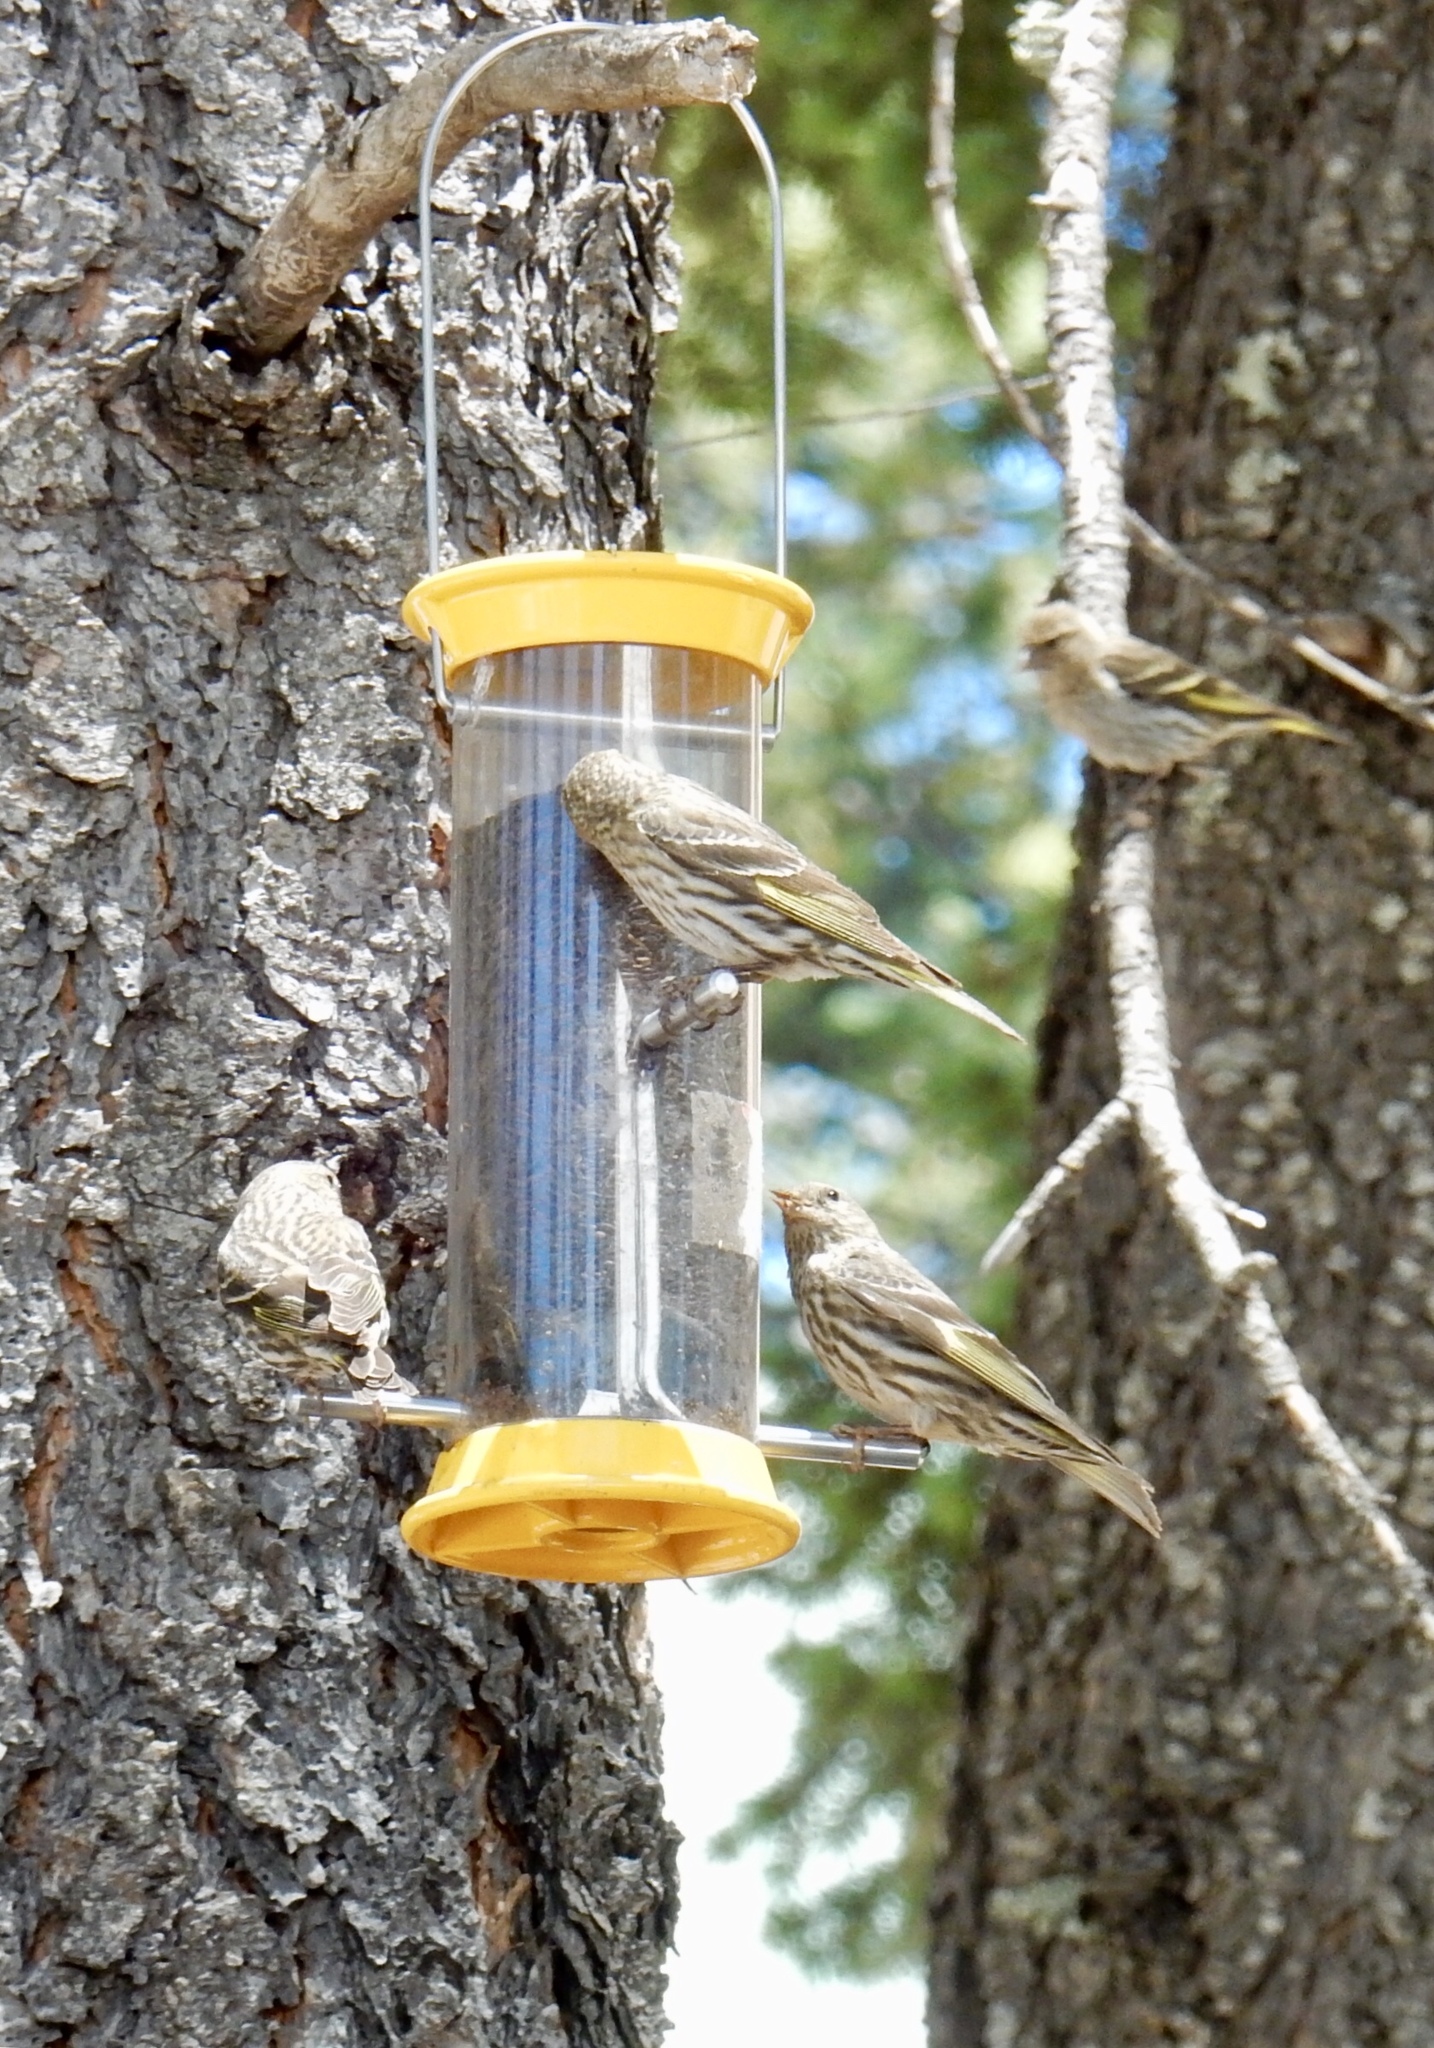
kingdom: Animalia
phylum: Chordata
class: Aves
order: Passeriformes
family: Fringillidae
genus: Spinus
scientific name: Spinus pinus
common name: Pine siskin
